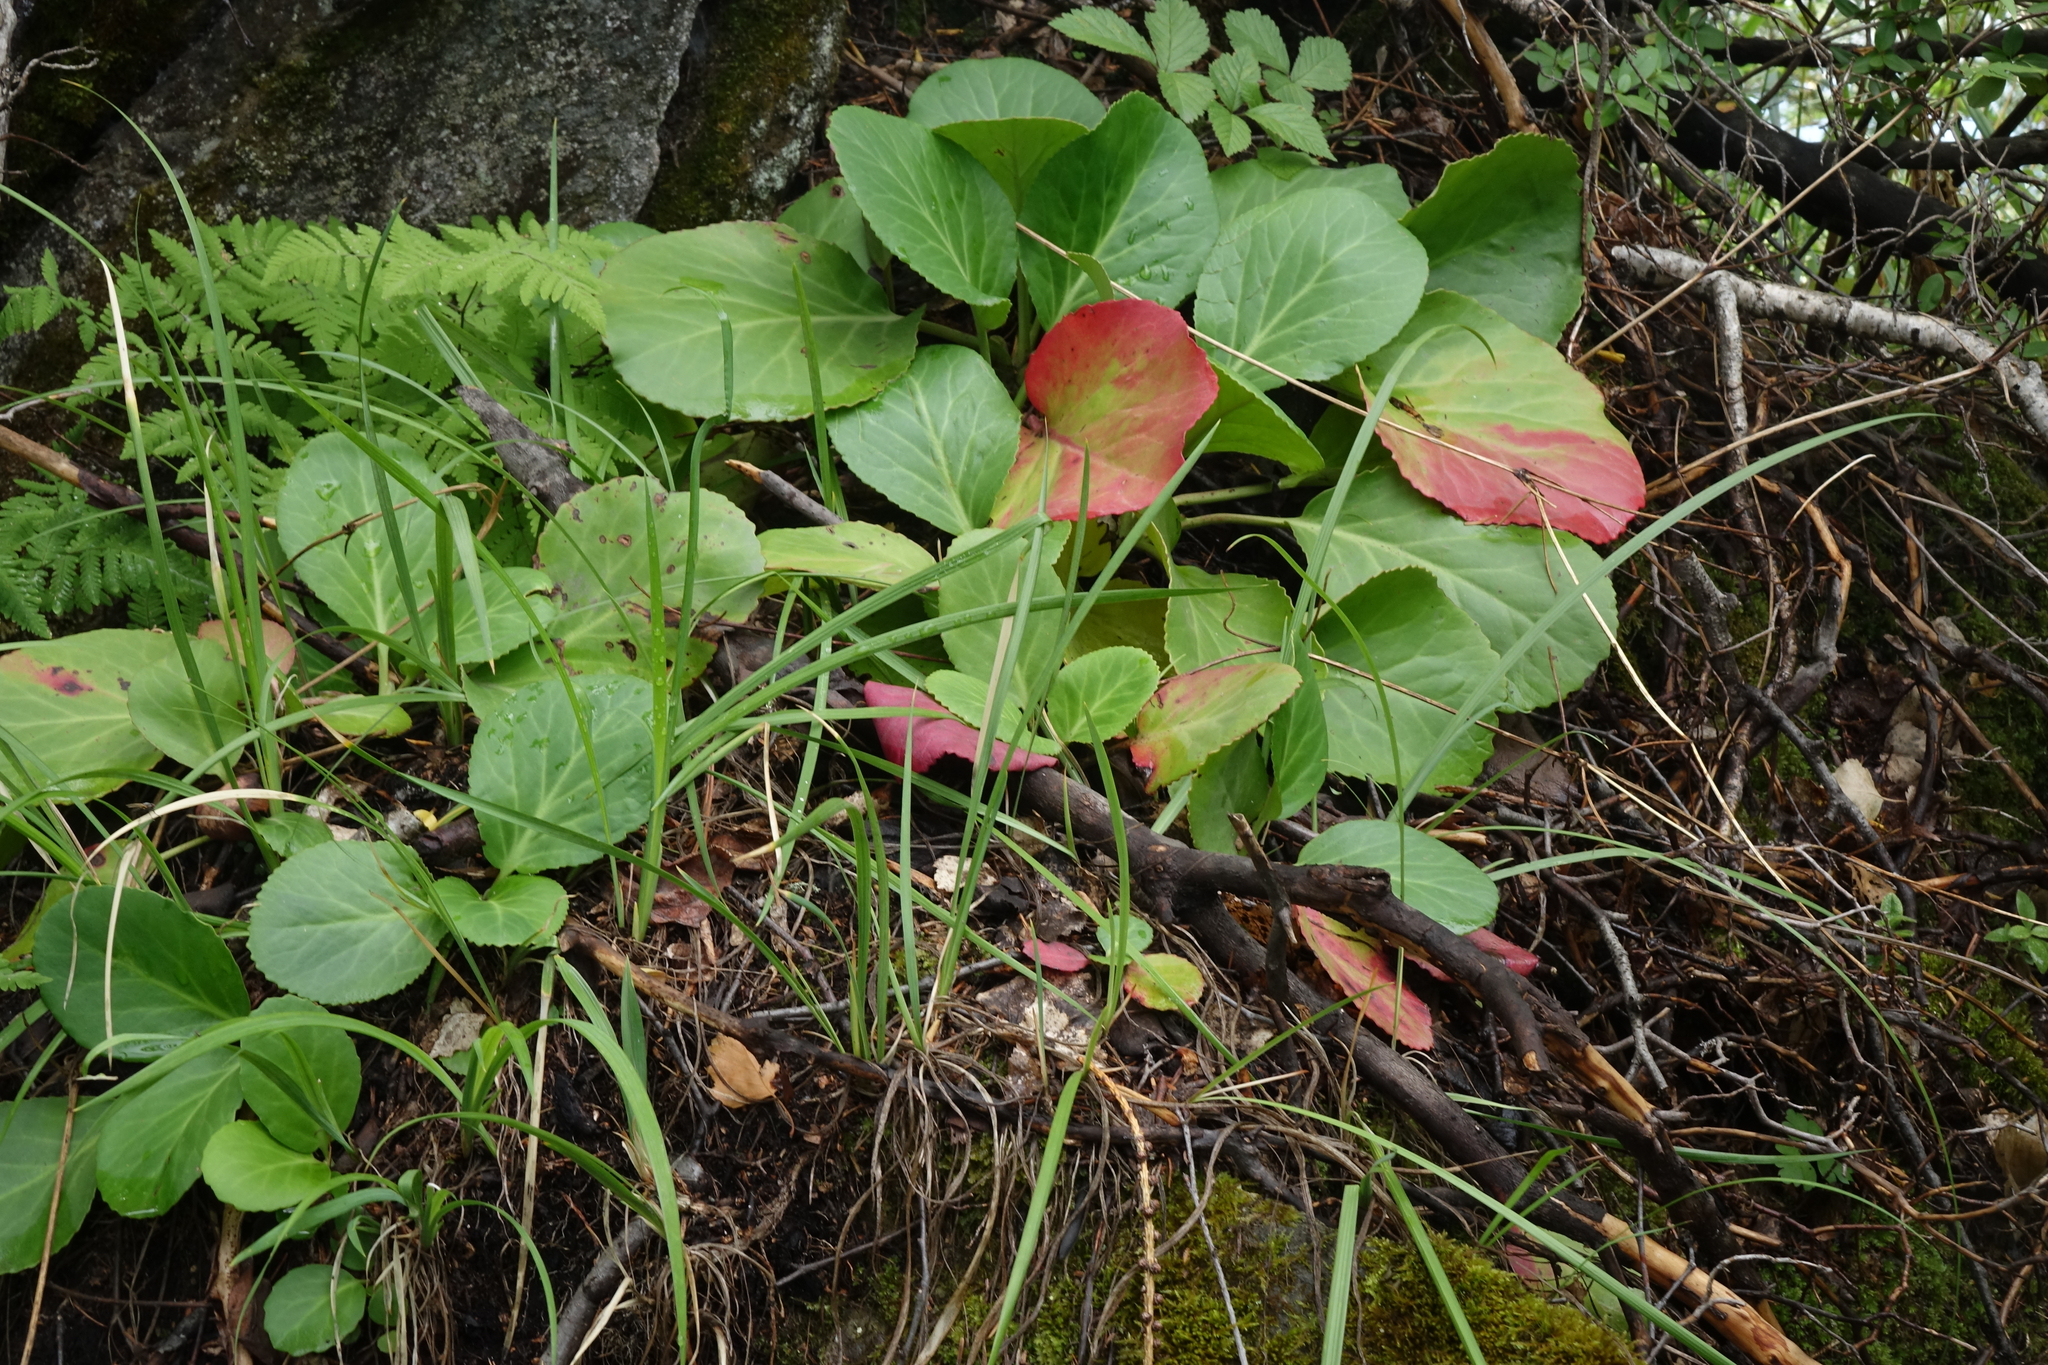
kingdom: Plantae
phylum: Tracheophyta
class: Magnoliopsida
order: Saxifragales
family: Saxifragaceae
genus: Bergenia
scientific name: Bergenia crassifolia
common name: Elephant-ears
